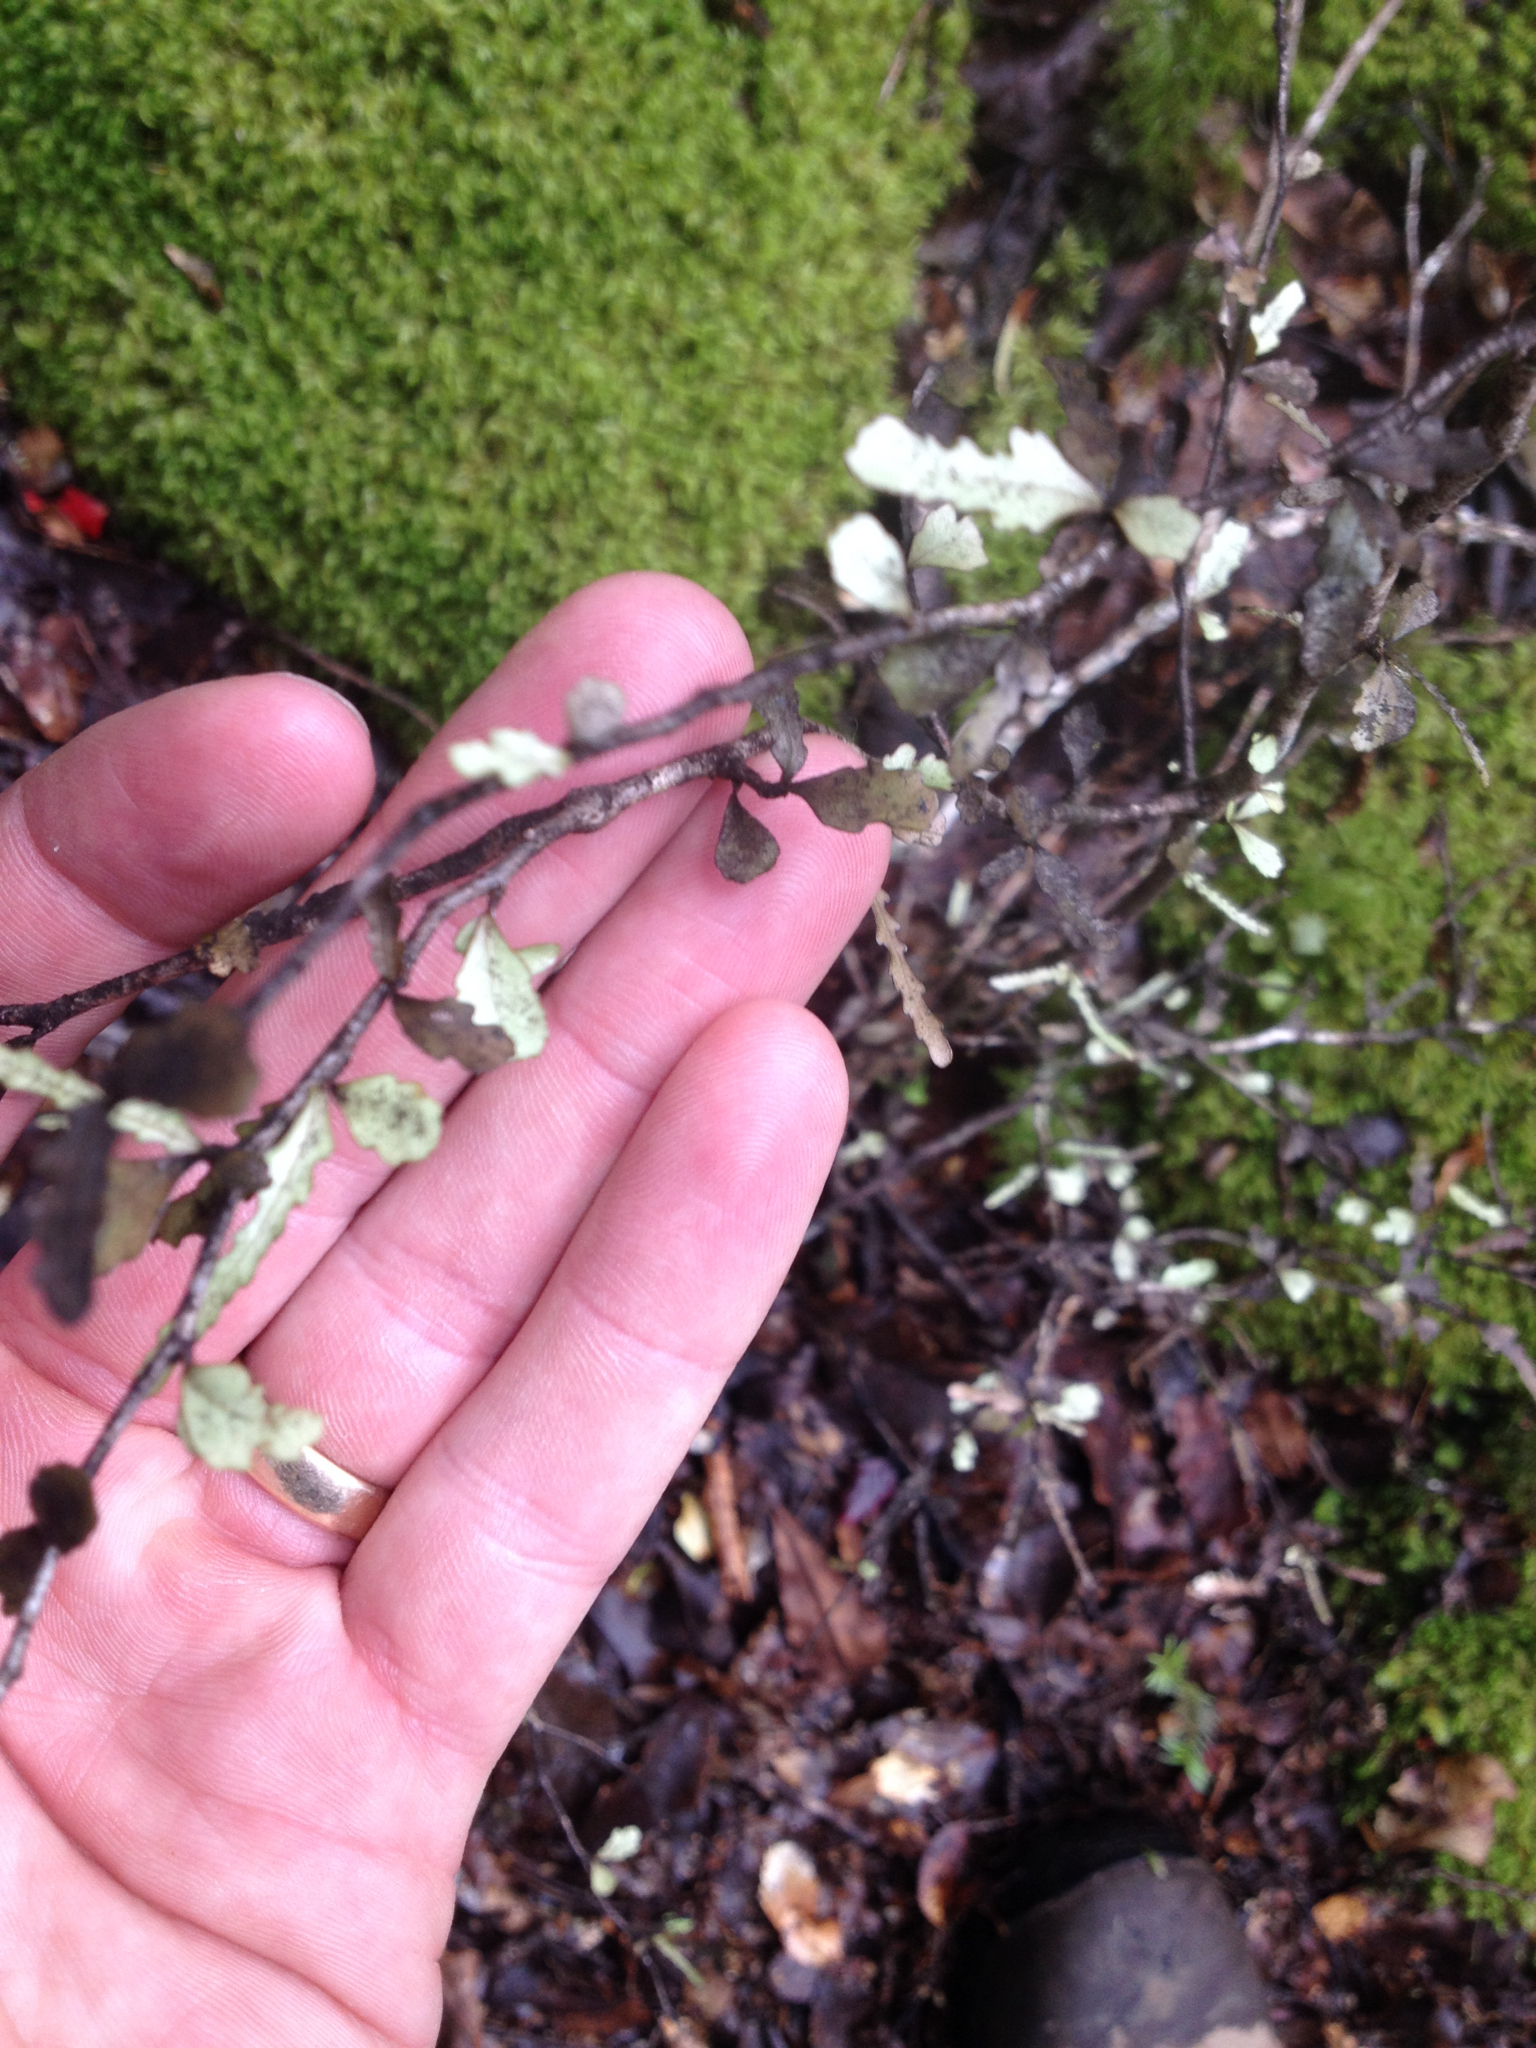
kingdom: Plantae
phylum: Tracheophyta
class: Magnoliopsida
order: Oxalidales
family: Elaeocarpaceae
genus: Elaeocarpus
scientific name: Elaeocarpus hookerianus
